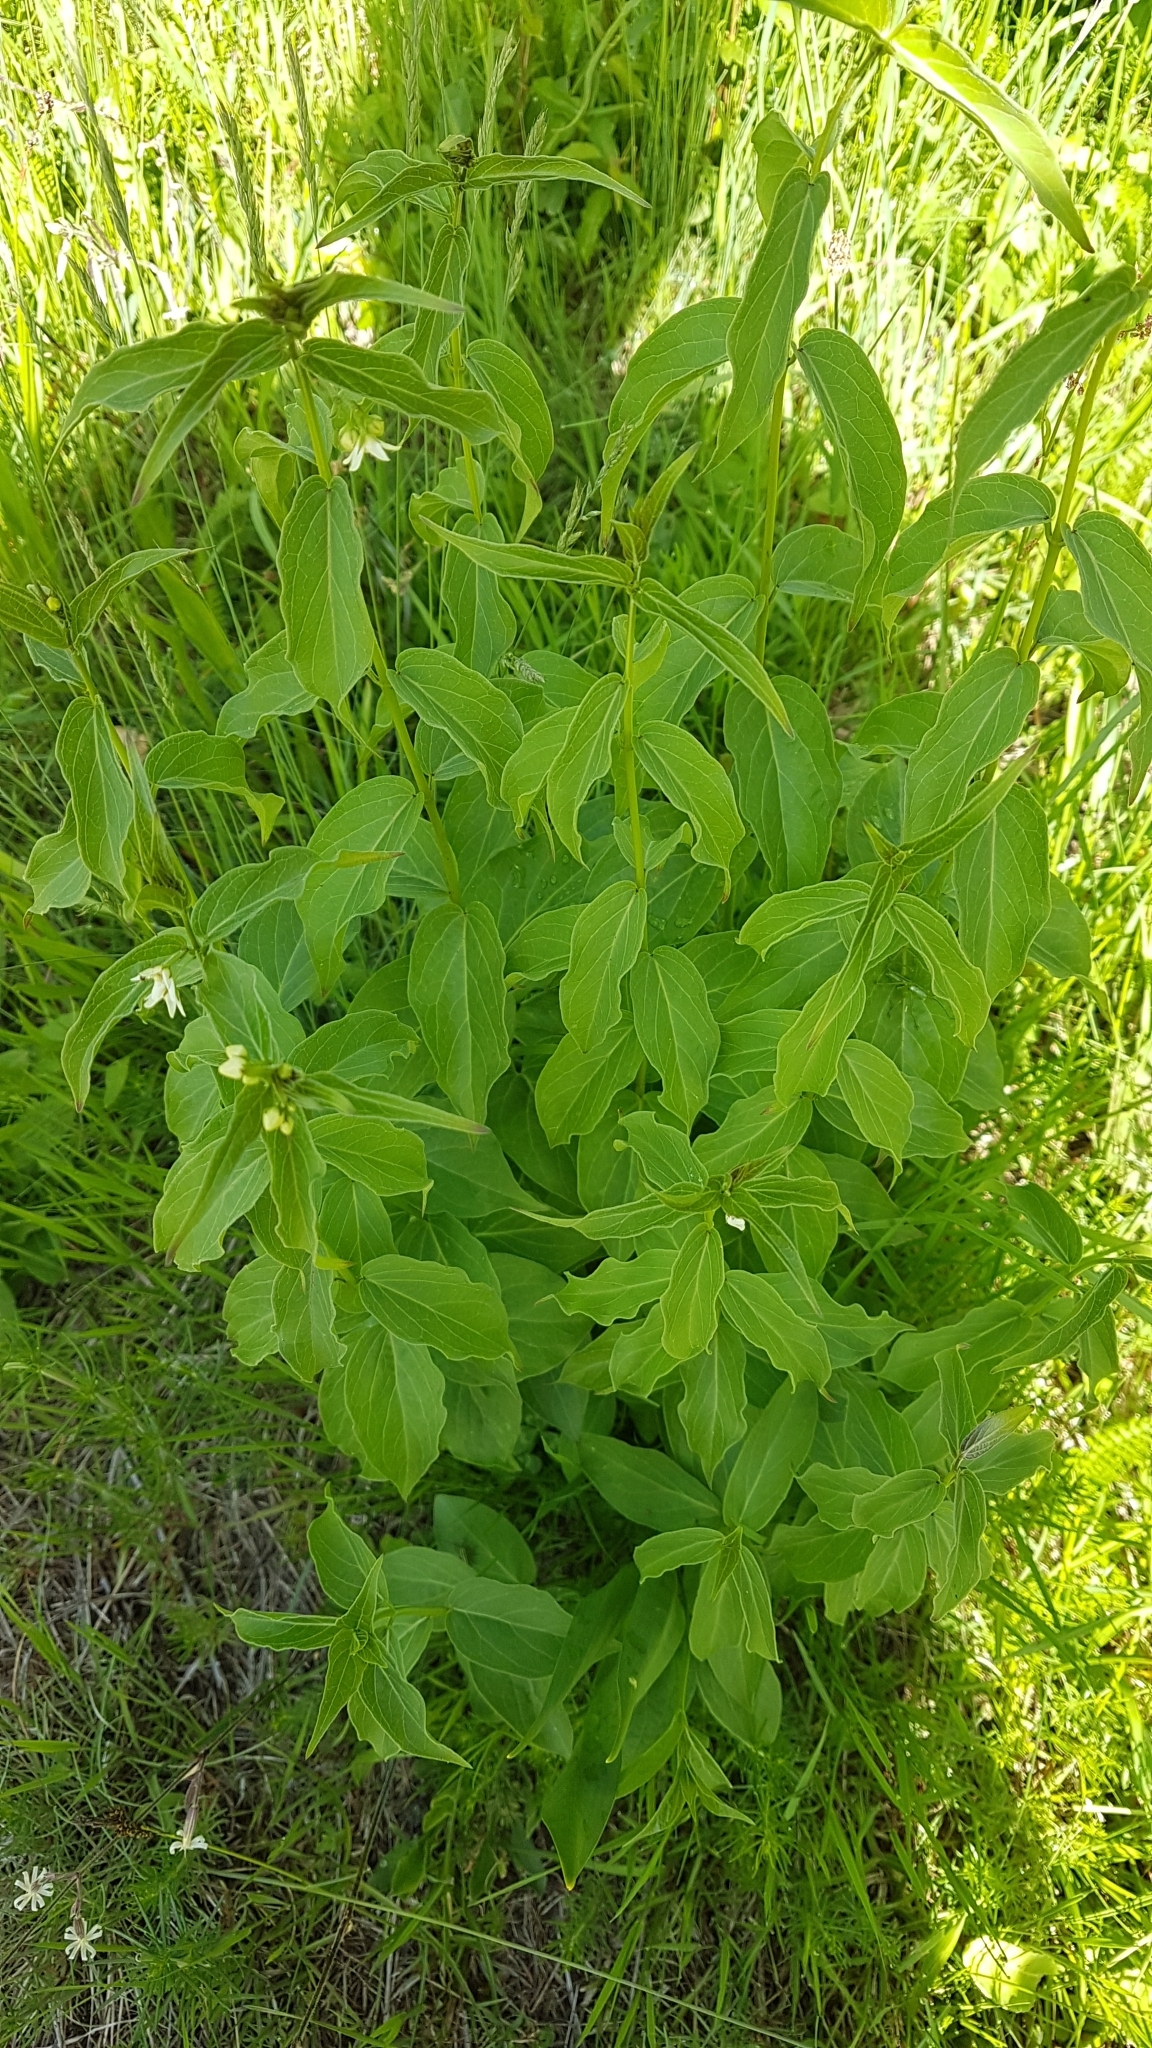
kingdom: Plantae
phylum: Tracheophyta
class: Magnoliopsida
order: Gentianales
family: Apocynaceae
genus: Vincetoxicum
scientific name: Vincetoxicum hirundinaria
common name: White swallowwort
